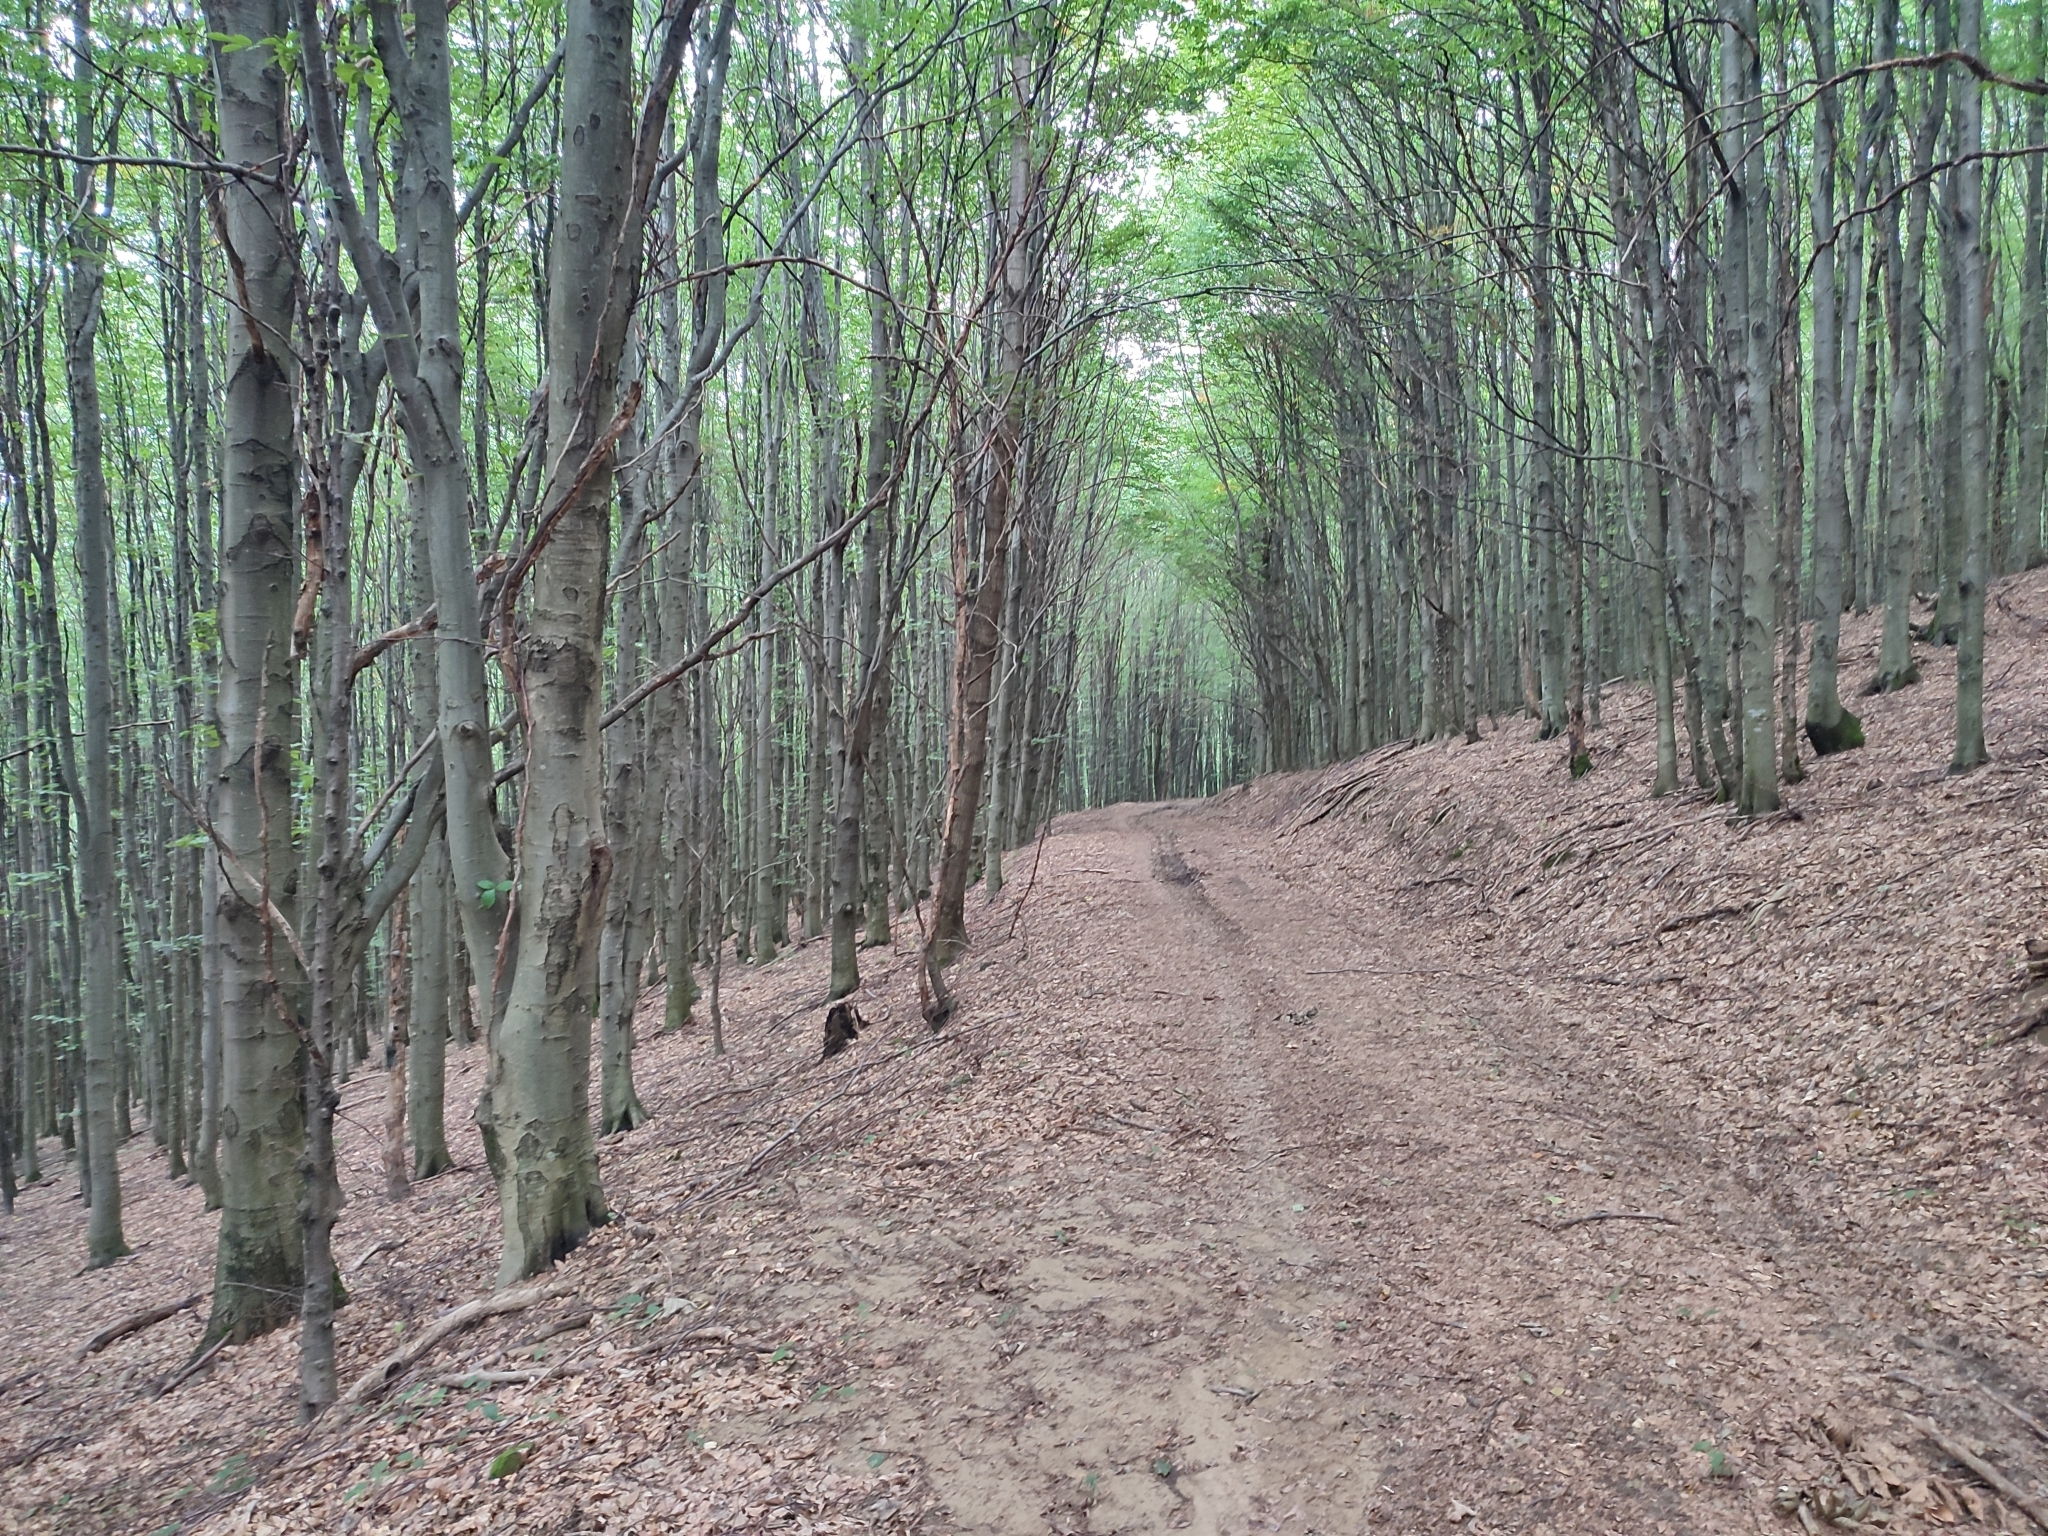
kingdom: Plantae
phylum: Tracheophyta
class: Magnoliopsida
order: Fagales
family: Fagaceae
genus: Fagus
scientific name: Fagus sylvatica
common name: Beech
